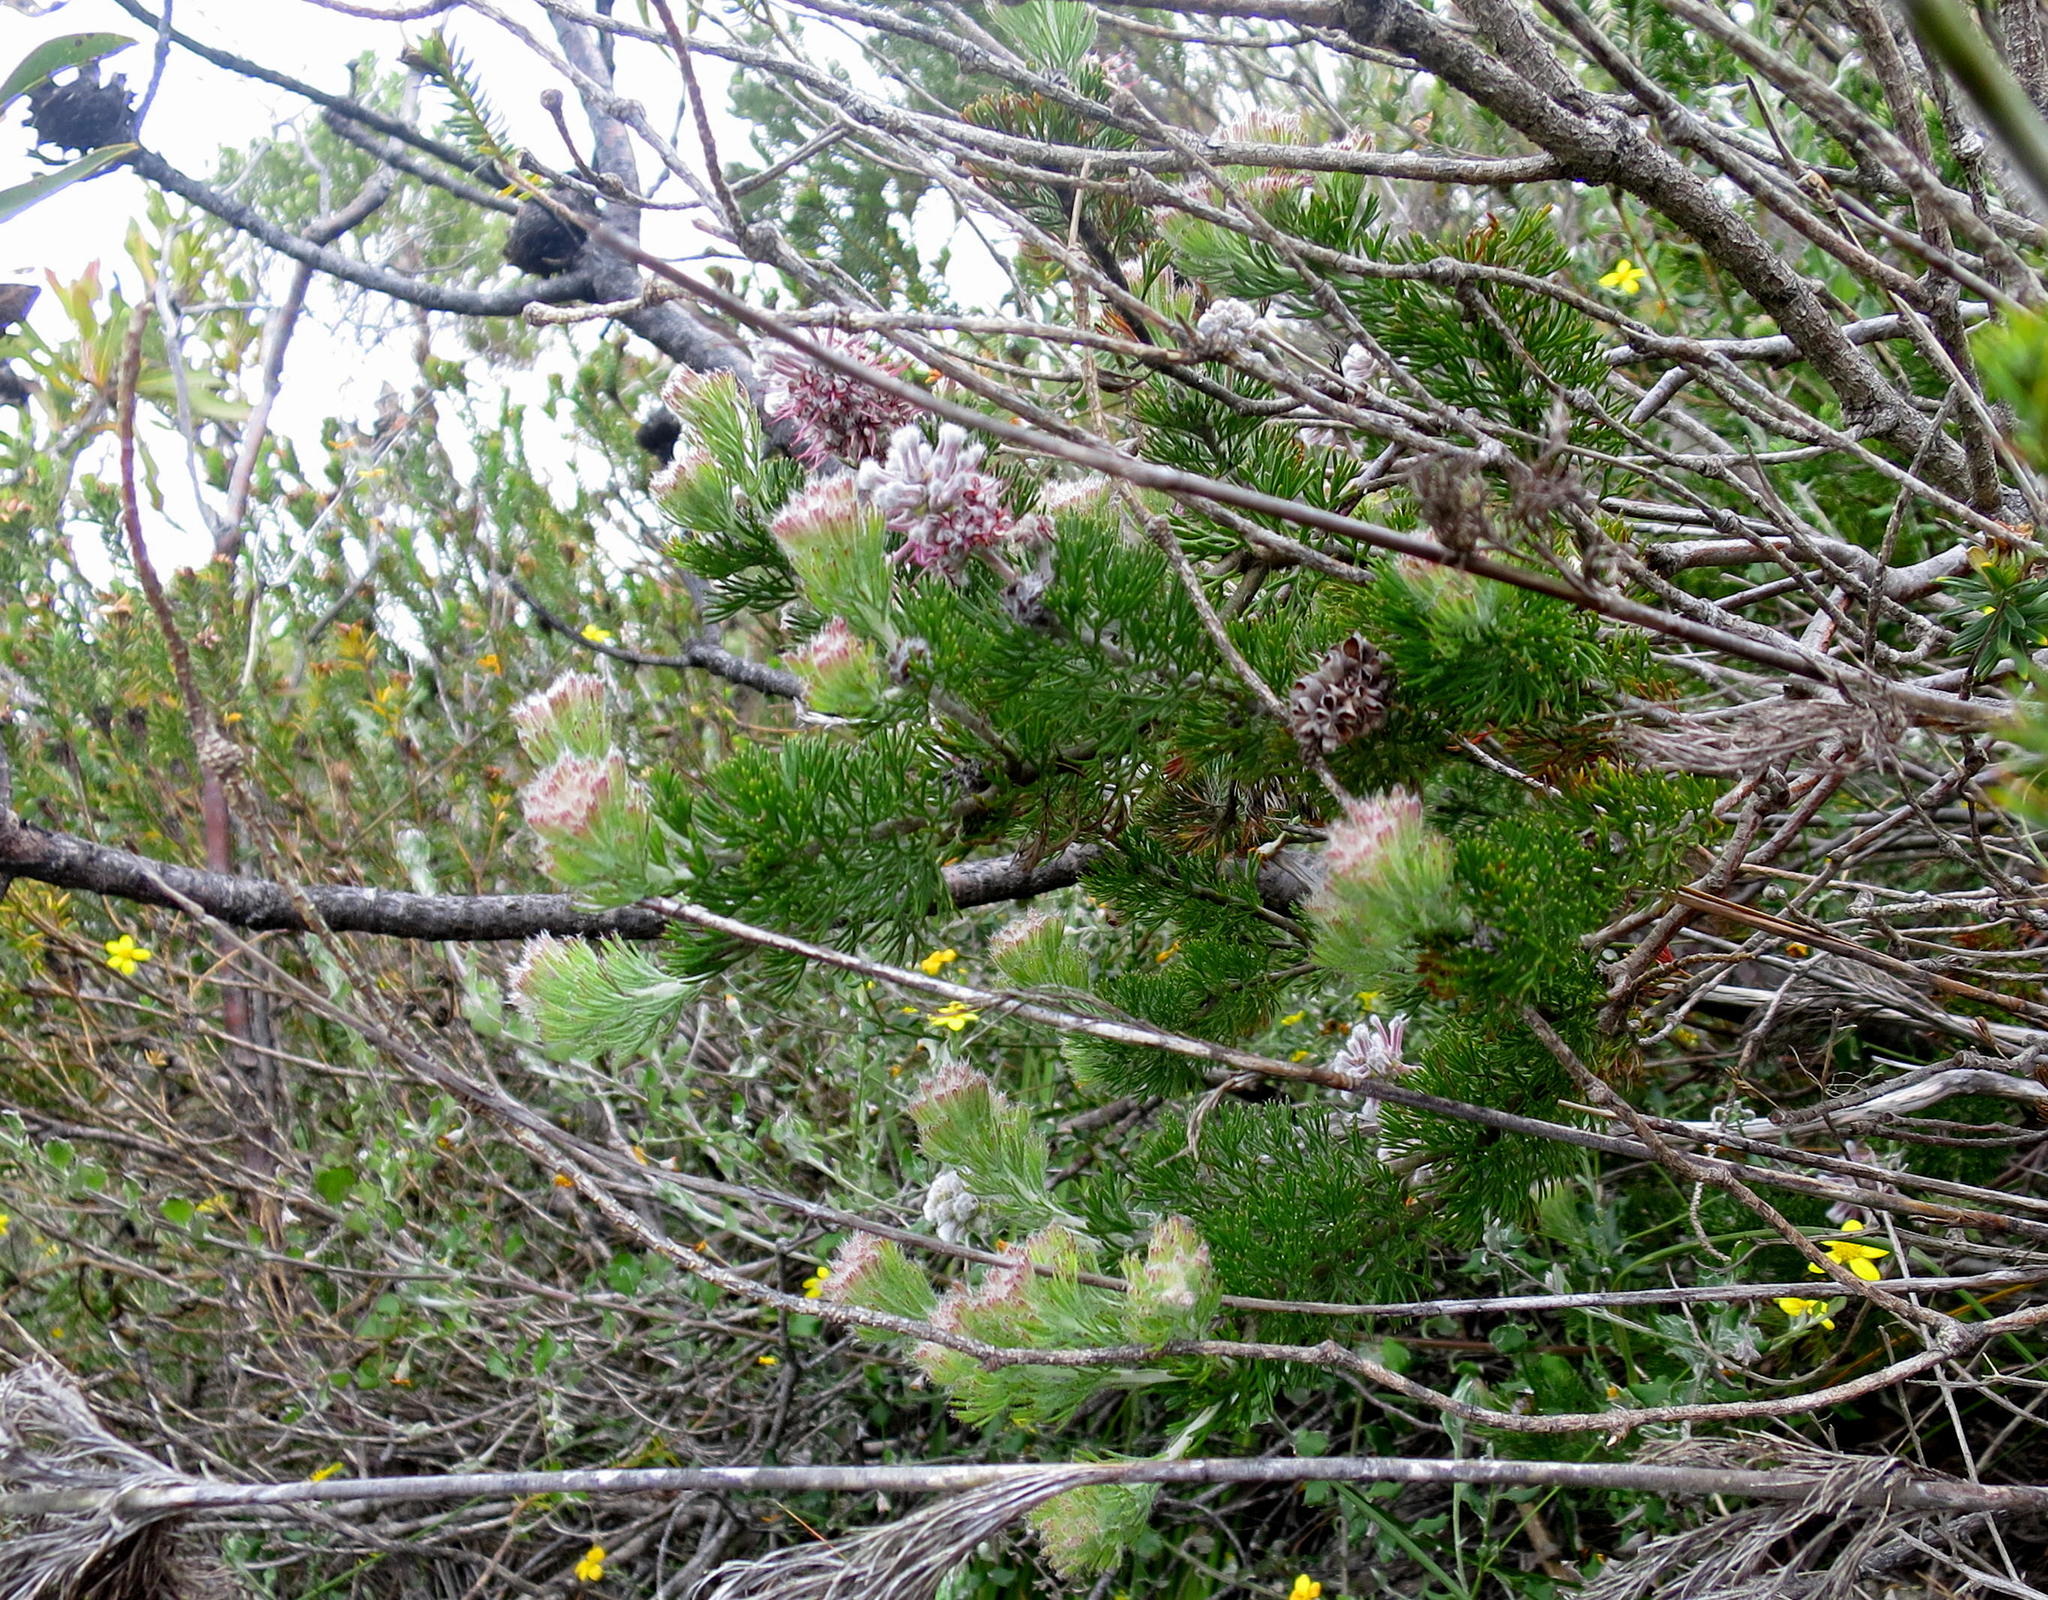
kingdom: Plantae
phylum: Tracheophyta
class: Magnoliopsida
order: Proteales
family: Proteaceae
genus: Paranomus
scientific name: Paranomus abrotanifolius
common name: Bredasdorp sceptre
